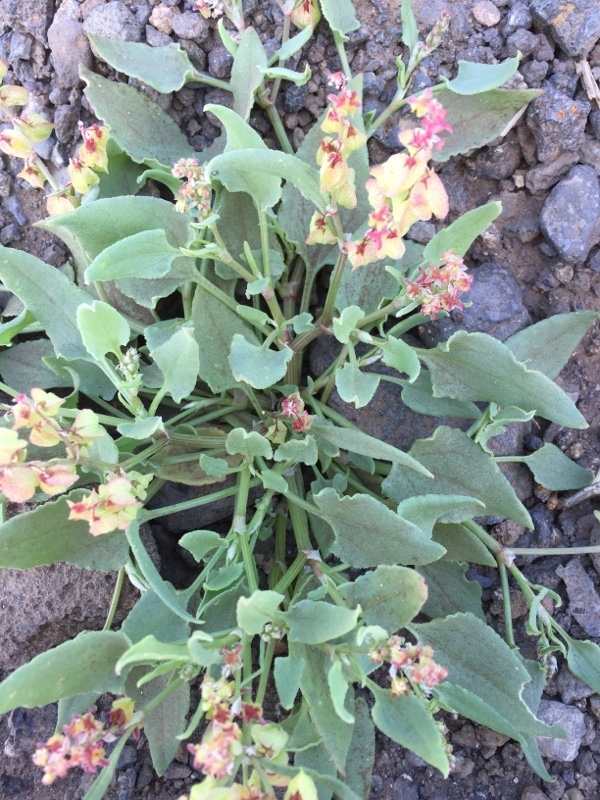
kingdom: Plantae
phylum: Tracheophyta
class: Magnoliopsida
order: Caryophyllales
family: Polygonaceae
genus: Rumex
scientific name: Rumex vesicarius
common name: Bladder dock
